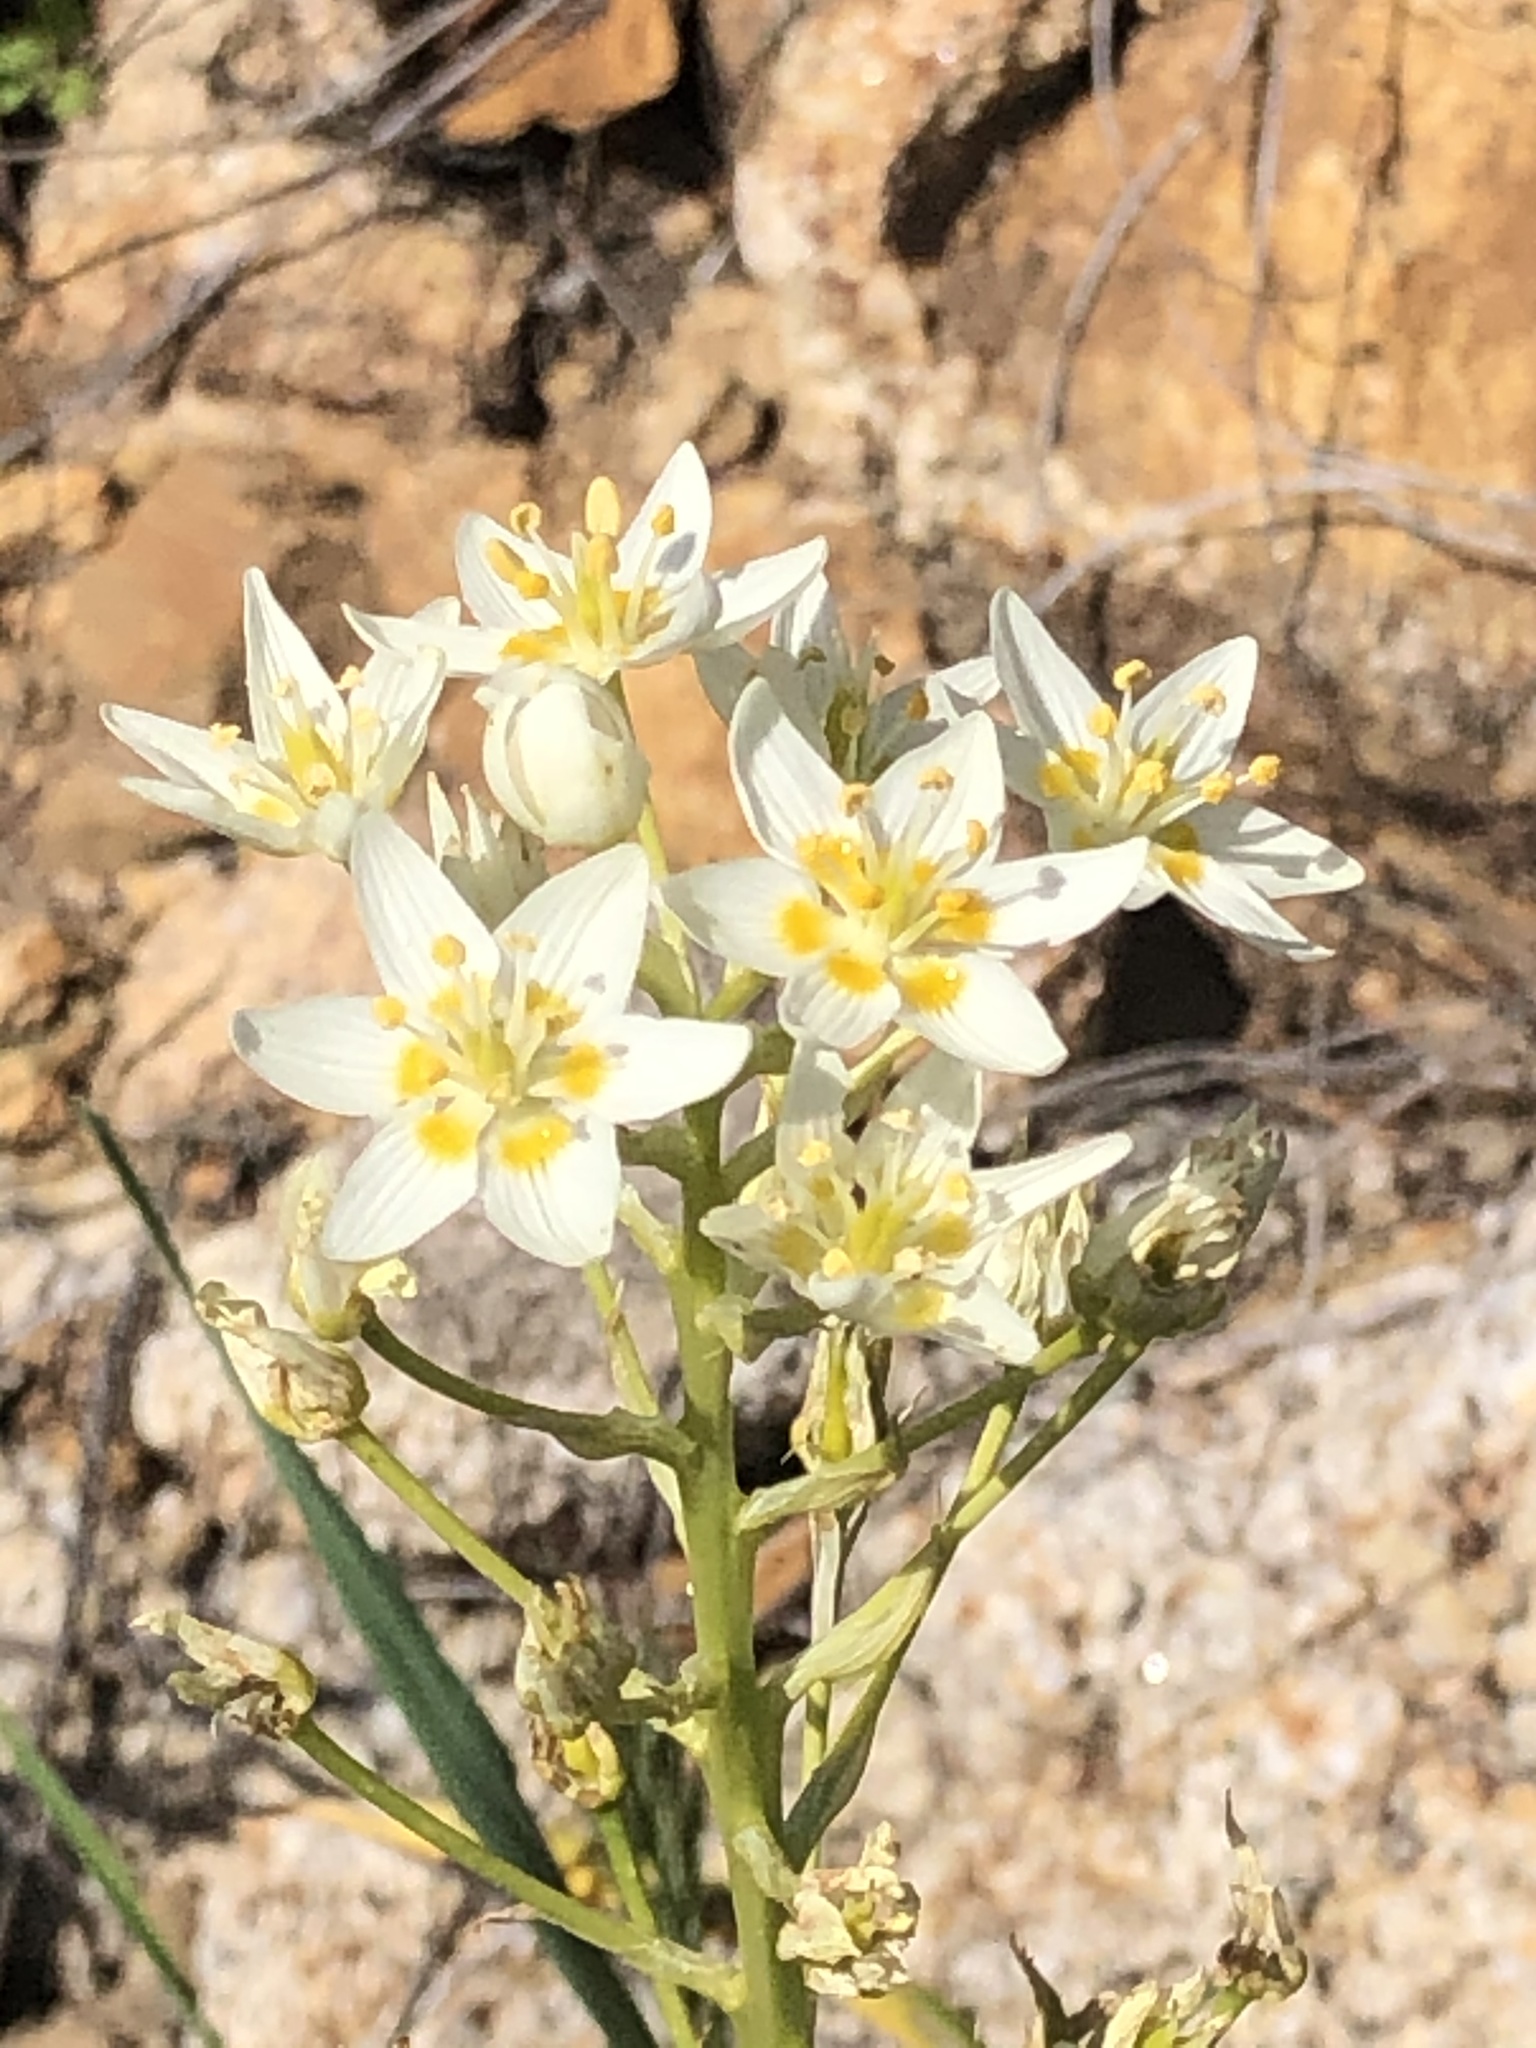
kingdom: Plantae
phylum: Tracheophyta
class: Liliopsida
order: Liliales
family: Melanthiaceae
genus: Toxicoscordion
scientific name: Toxicoscordion fremontii
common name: Fremont's death camas
